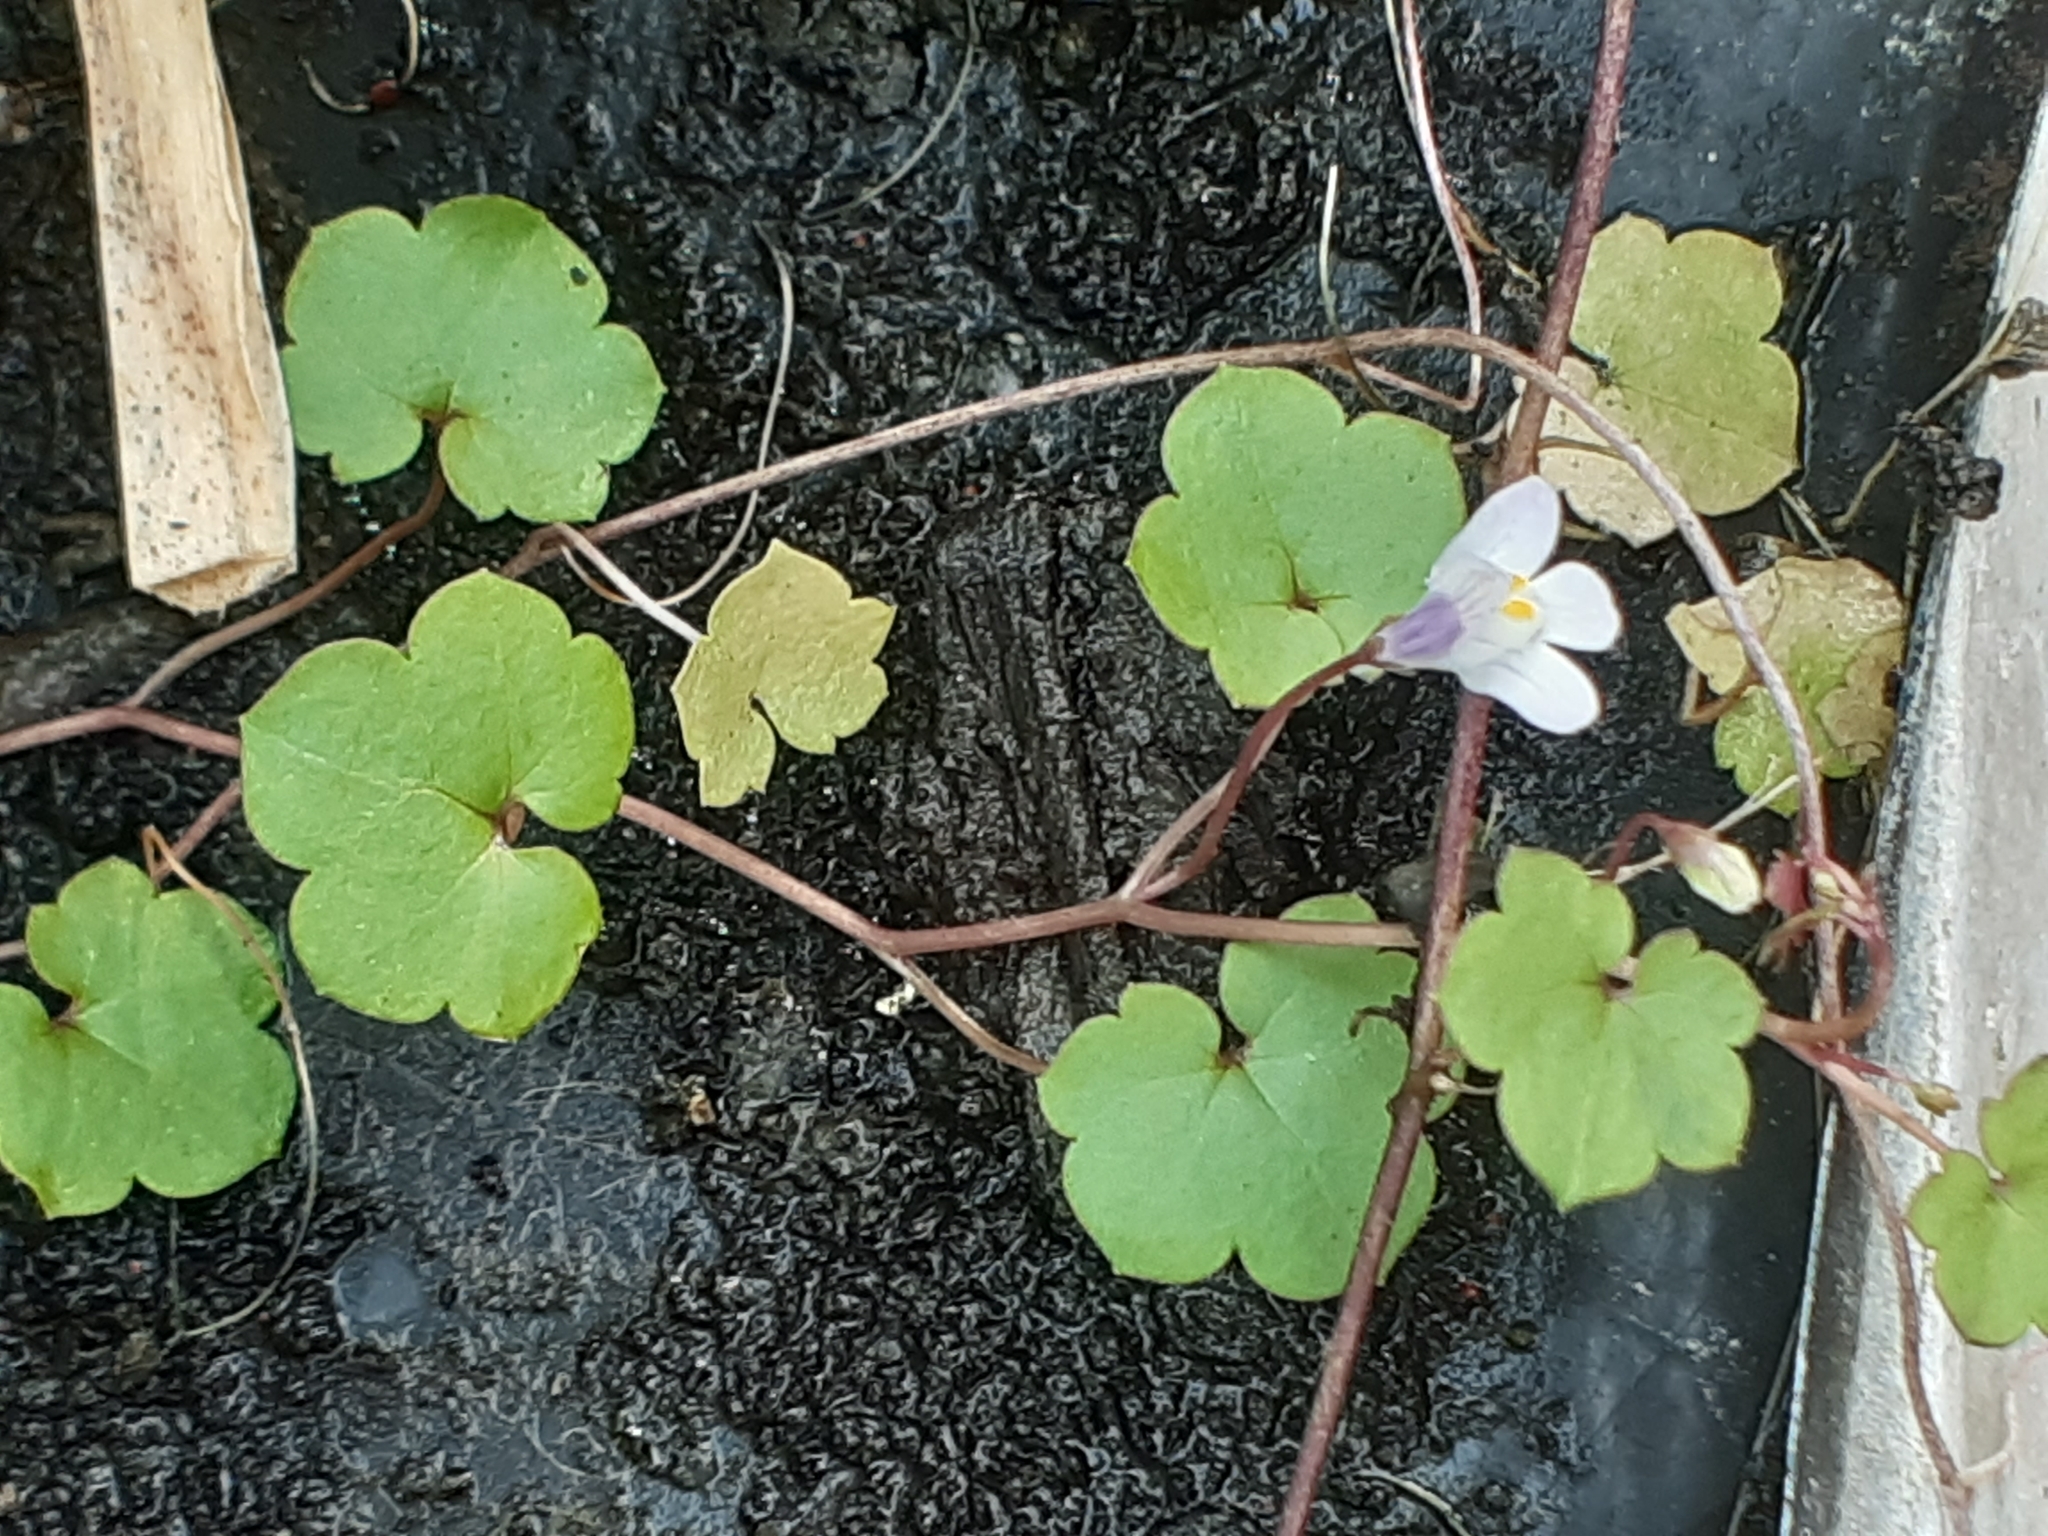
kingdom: Plantae
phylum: Tracheophyta
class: Magnoliopsida
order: Lamiales
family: Plantaginaceae
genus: Cymbalaria
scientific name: Cymbalaria muralis
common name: Ivy-leaved toadflax
